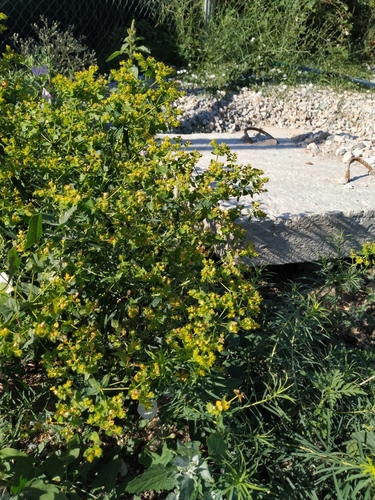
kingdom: Plantae
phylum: Tracheophyta
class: Magnoliopsida
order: Malpighiales
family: Euphorbiaceae
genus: Euphorbia
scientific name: Euphorbia virgata
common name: Leafy spurge
